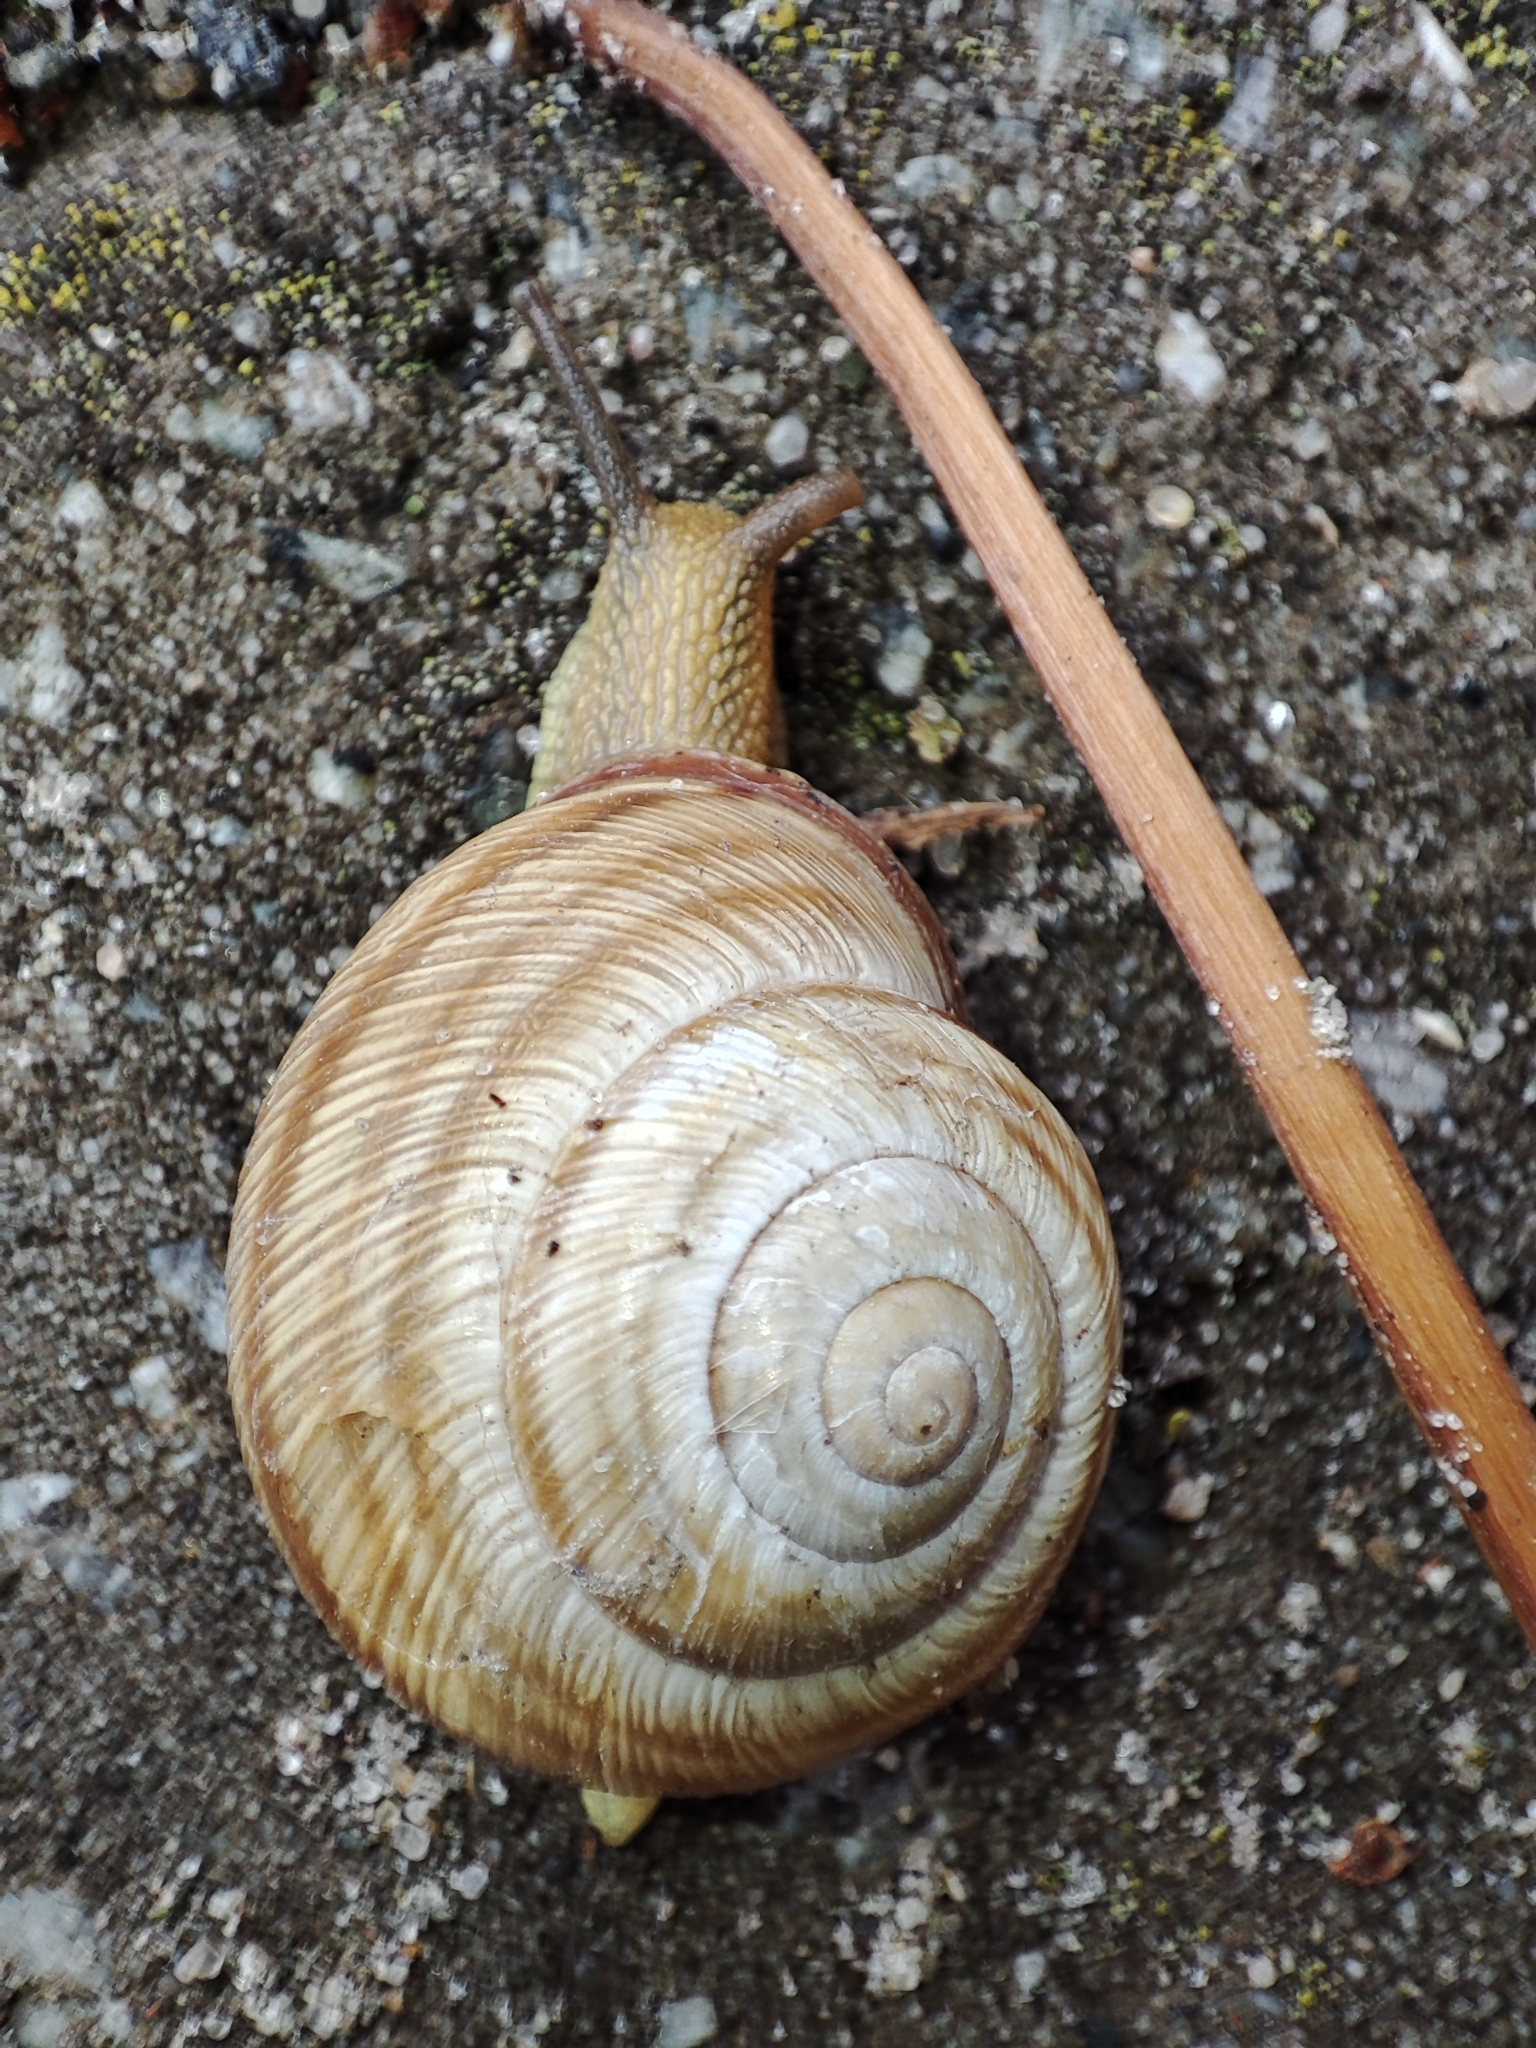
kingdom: Animalia
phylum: Mollusca
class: Gastropoda
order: Stylommatophora
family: Helicidae
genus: Caucasotachea
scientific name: Caucasotachea vindobonensis
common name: European helicid land snail
